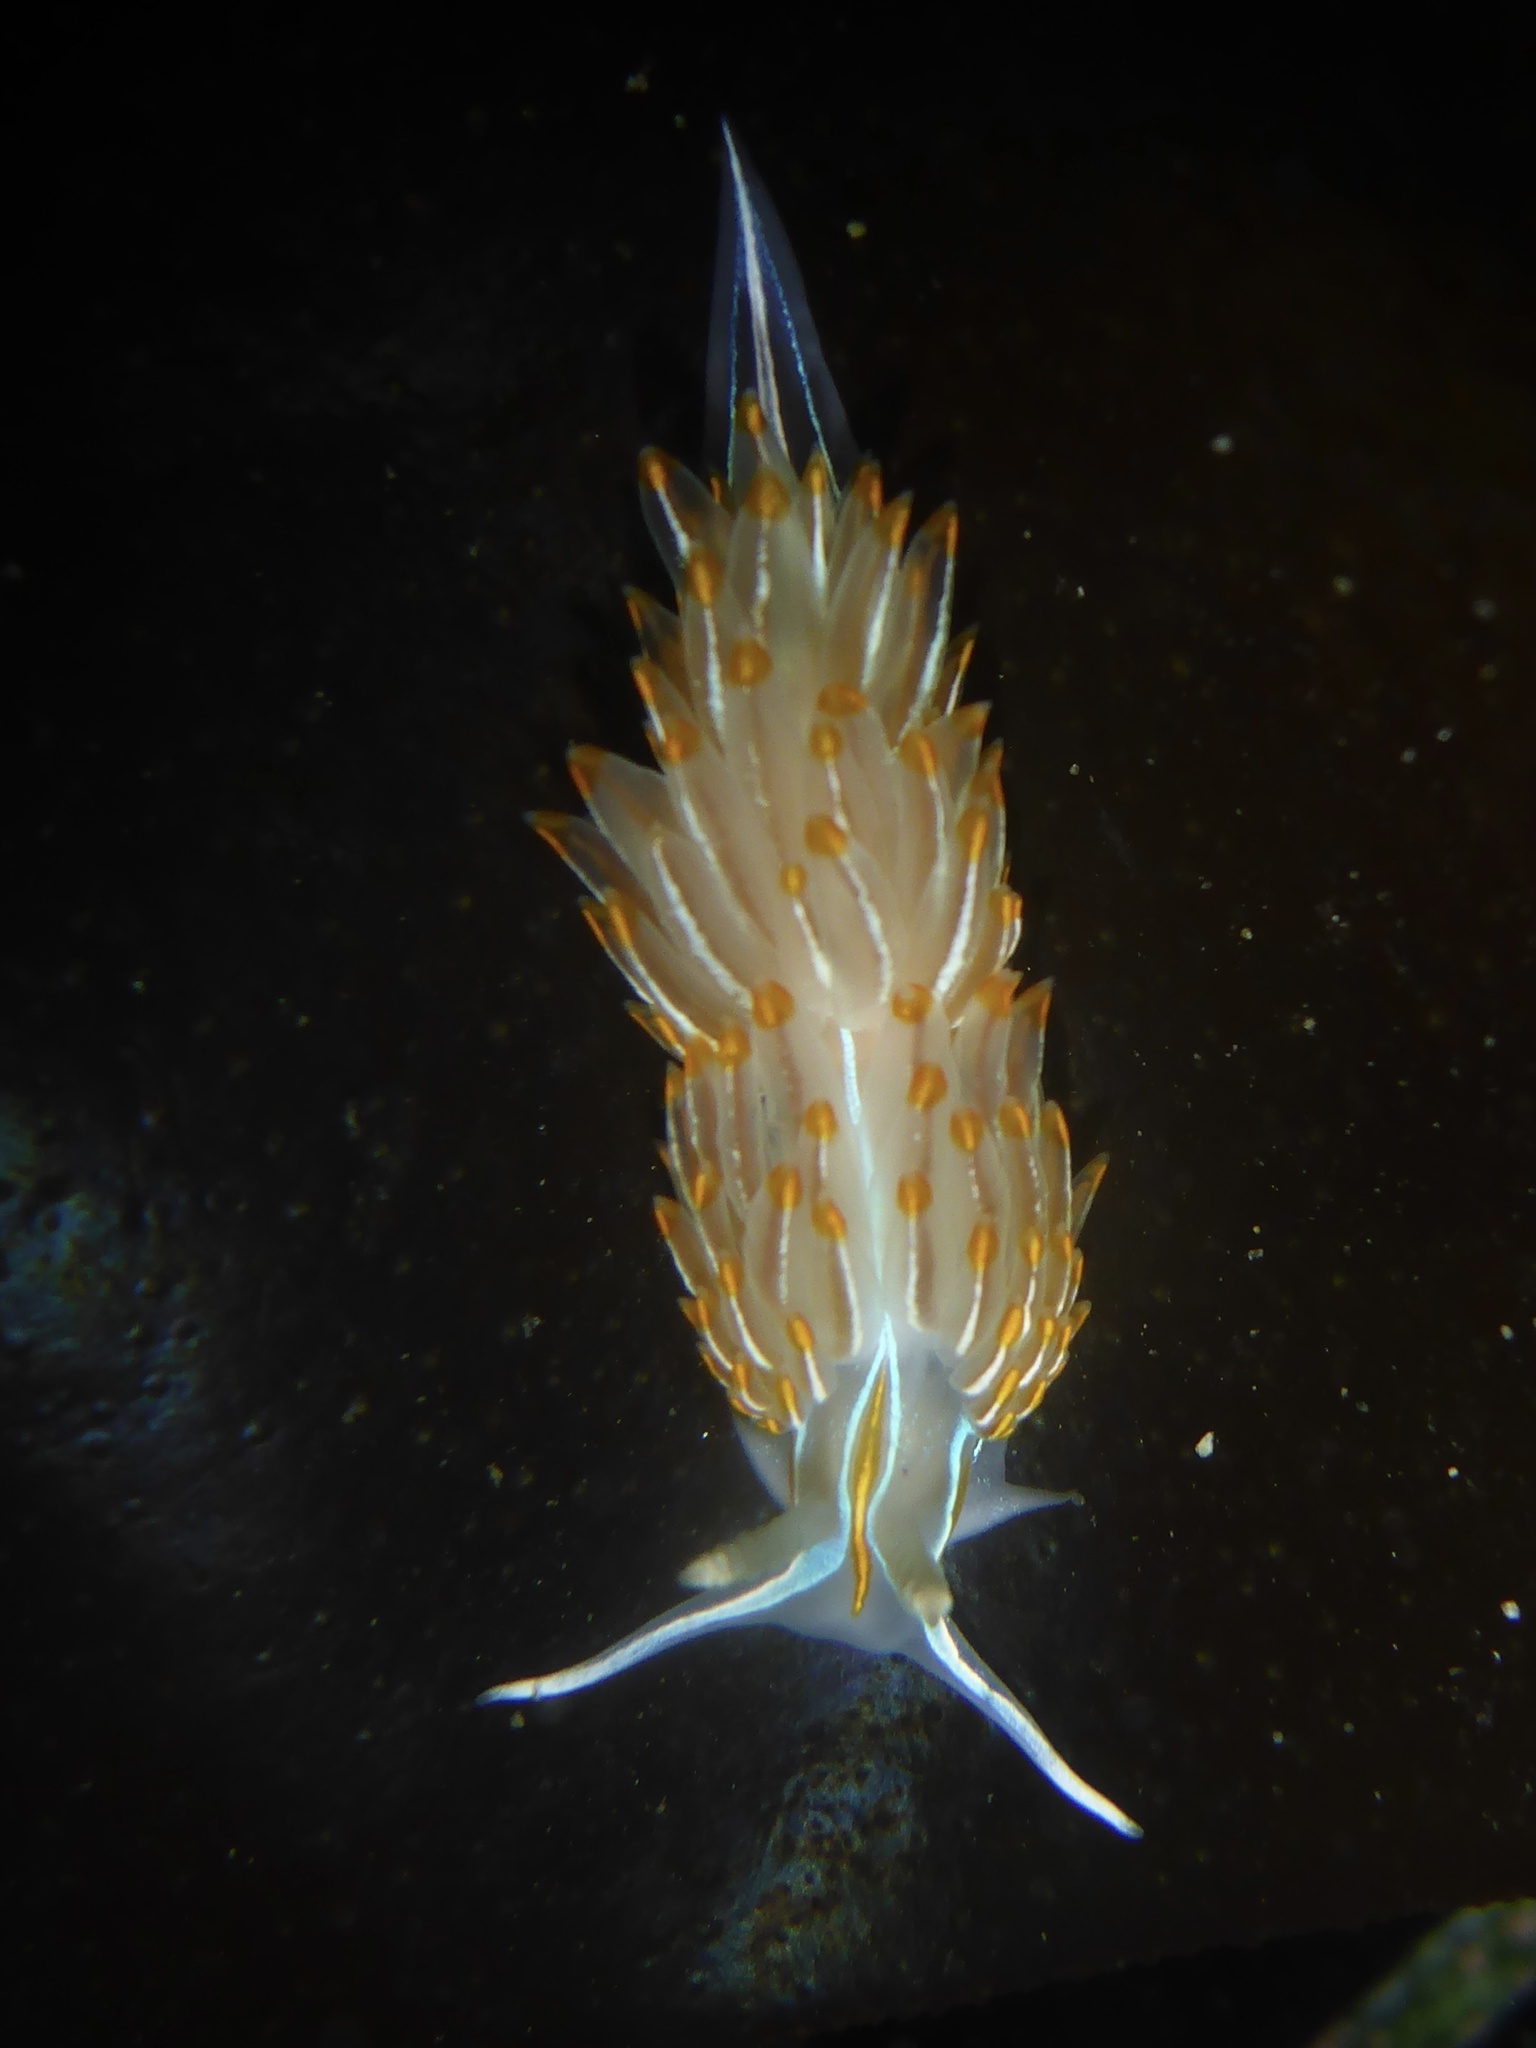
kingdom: Animalia
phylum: Mollusca
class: Gastropoda
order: Nudibranchia
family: Myrrhinidae
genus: Hermissenda
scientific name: Hermissenda crassicornis
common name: Hermissenda
